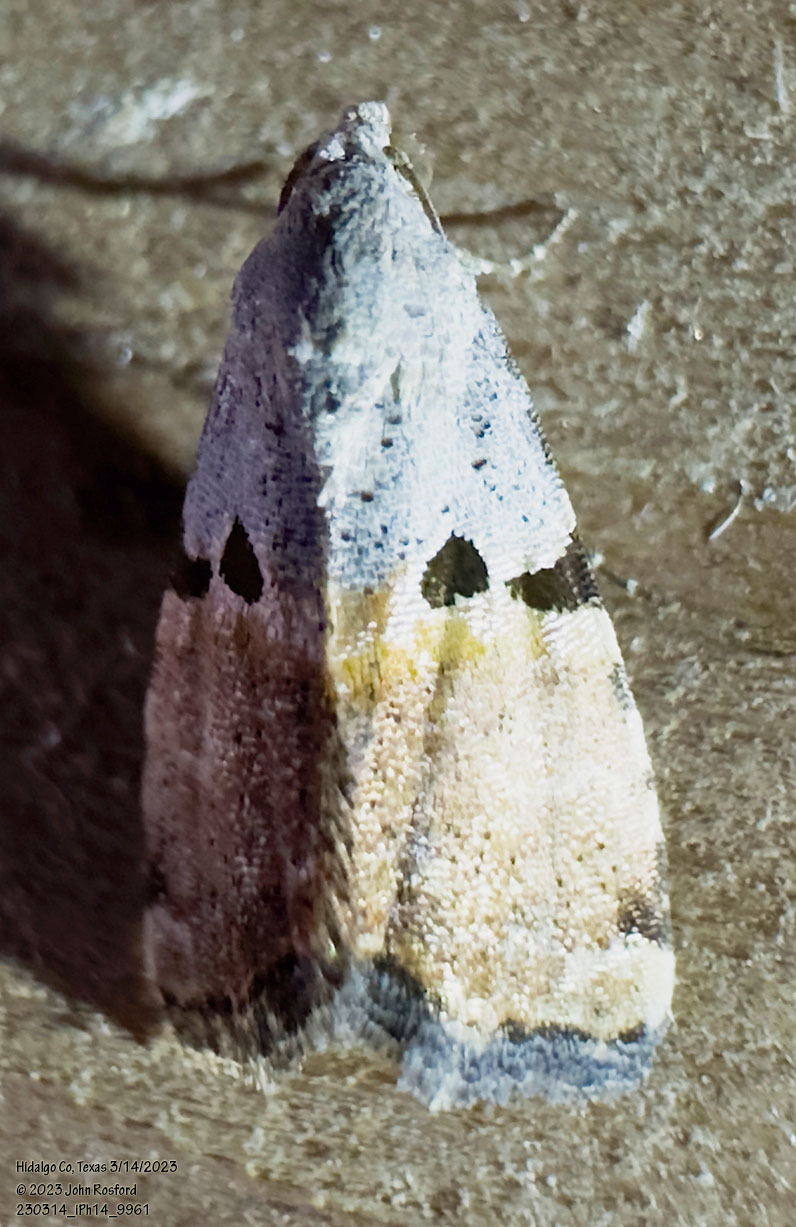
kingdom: Animalia
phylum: Arthropoda
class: Insecta
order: Lepidoptera
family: Noctuidae
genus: Cobubatha
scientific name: Cobubatha orthozona
